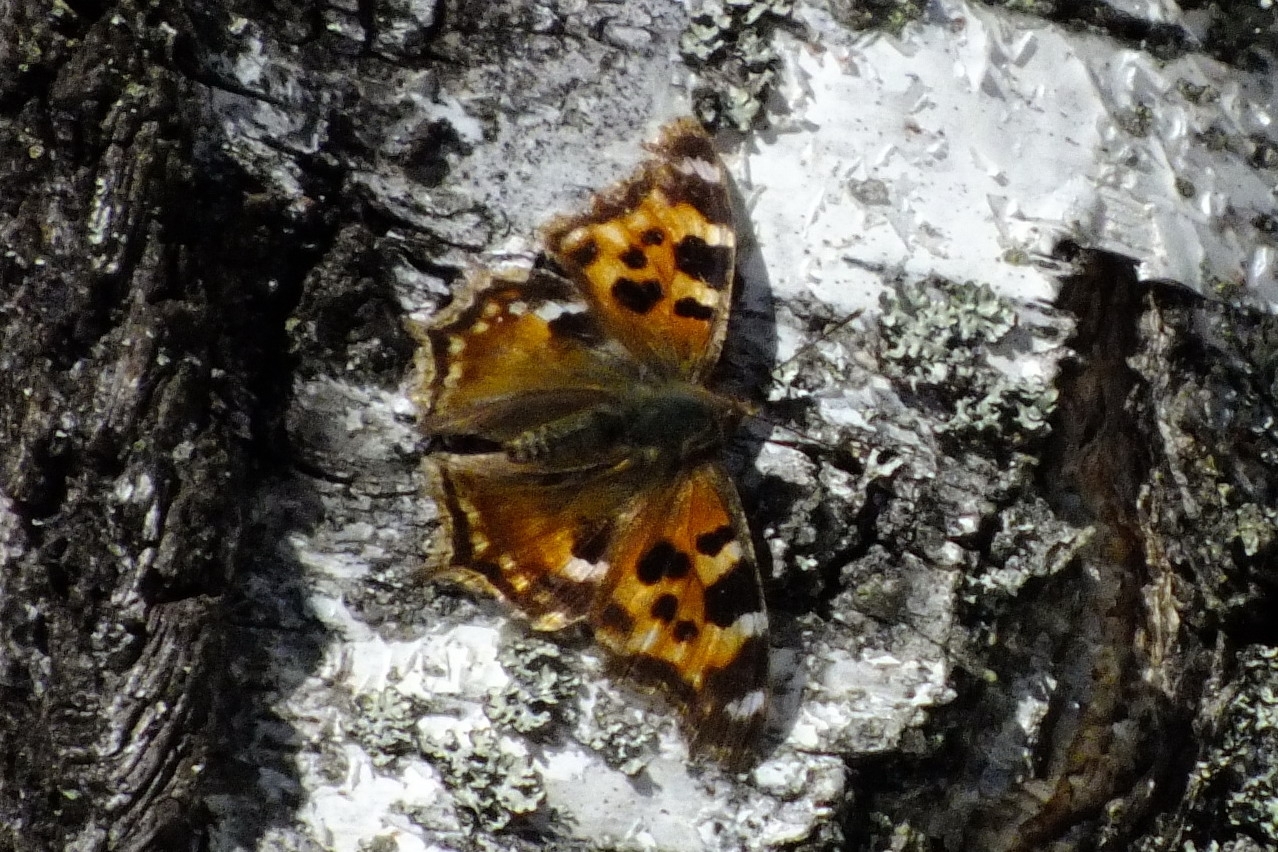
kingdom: Animalia
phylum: Arthropoda
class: Insecta
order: Lepidoptera
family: Nymphalidae
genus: Polygonia
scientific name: Polygonia vaualbum
